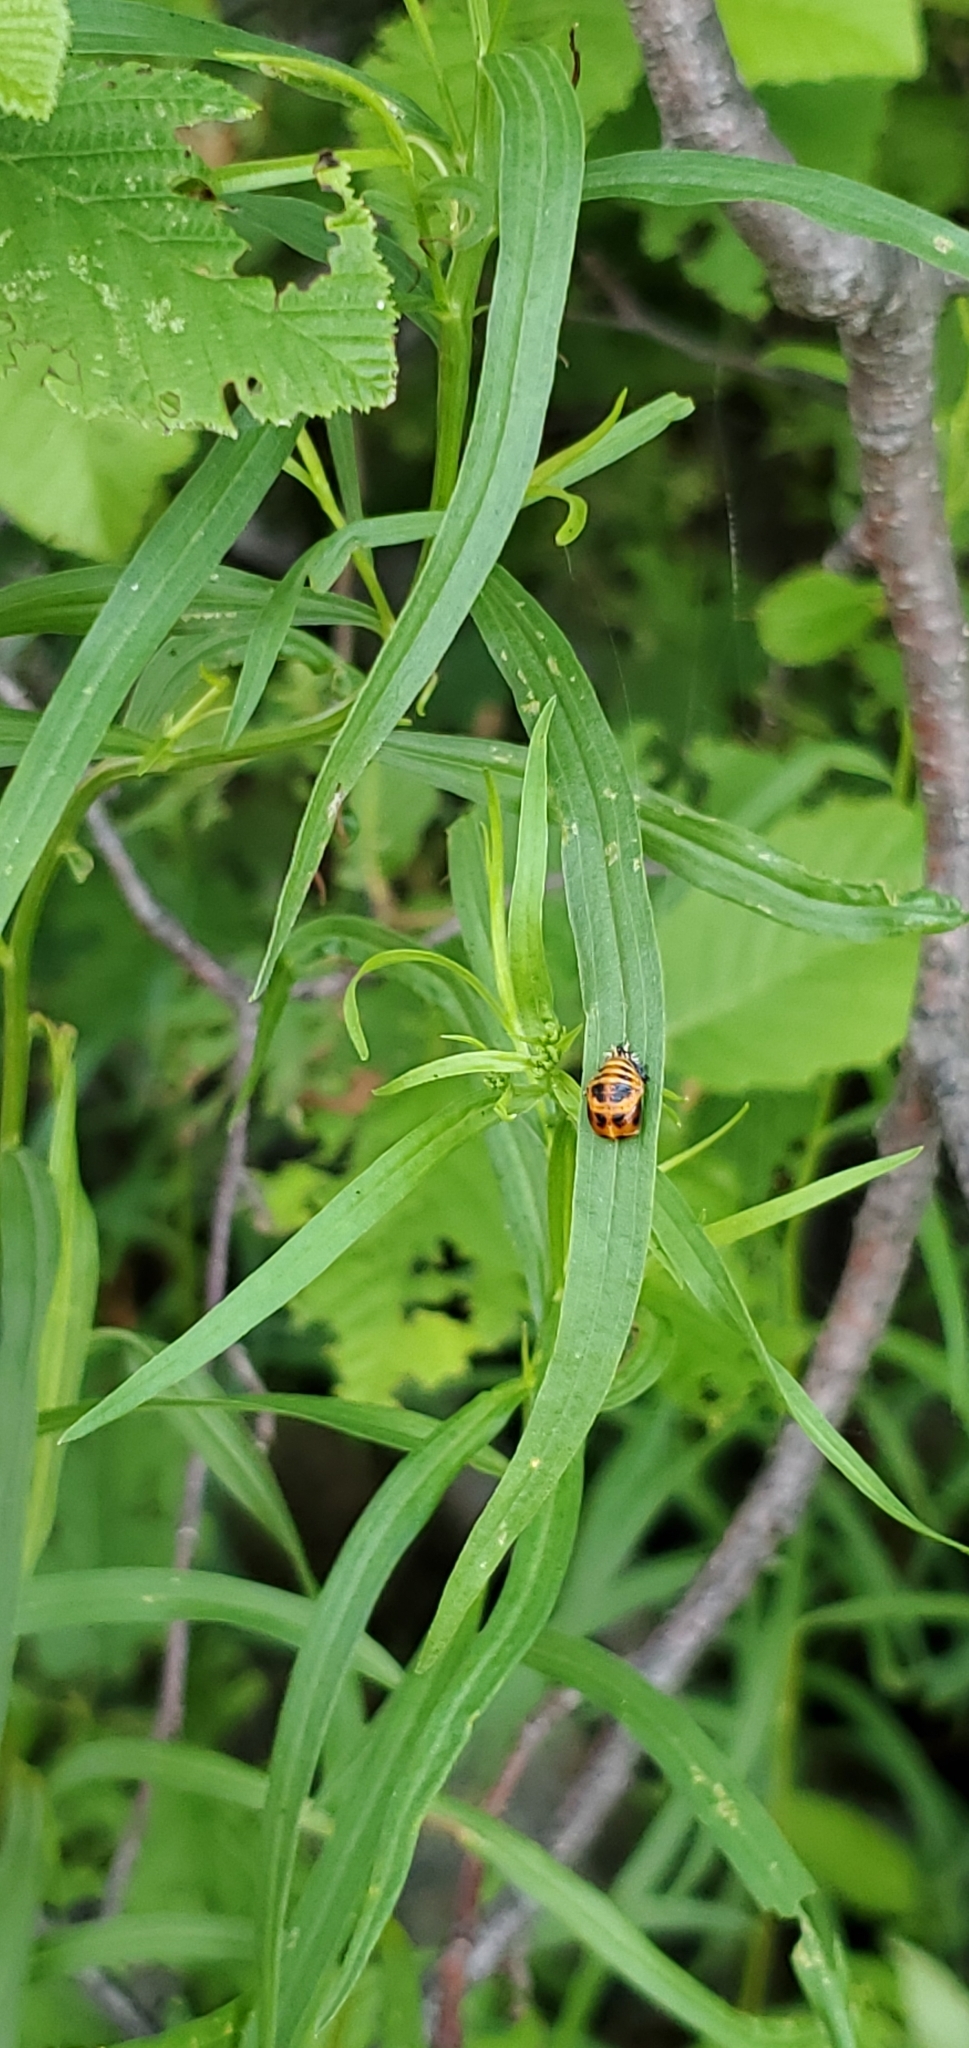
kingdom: Animalia
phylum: Arthropoda
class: Insecta
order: Coleoptera
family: Coccinellidae
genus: Harmonia
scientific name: Harmonia axyridis
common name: Harlequin ladybird
